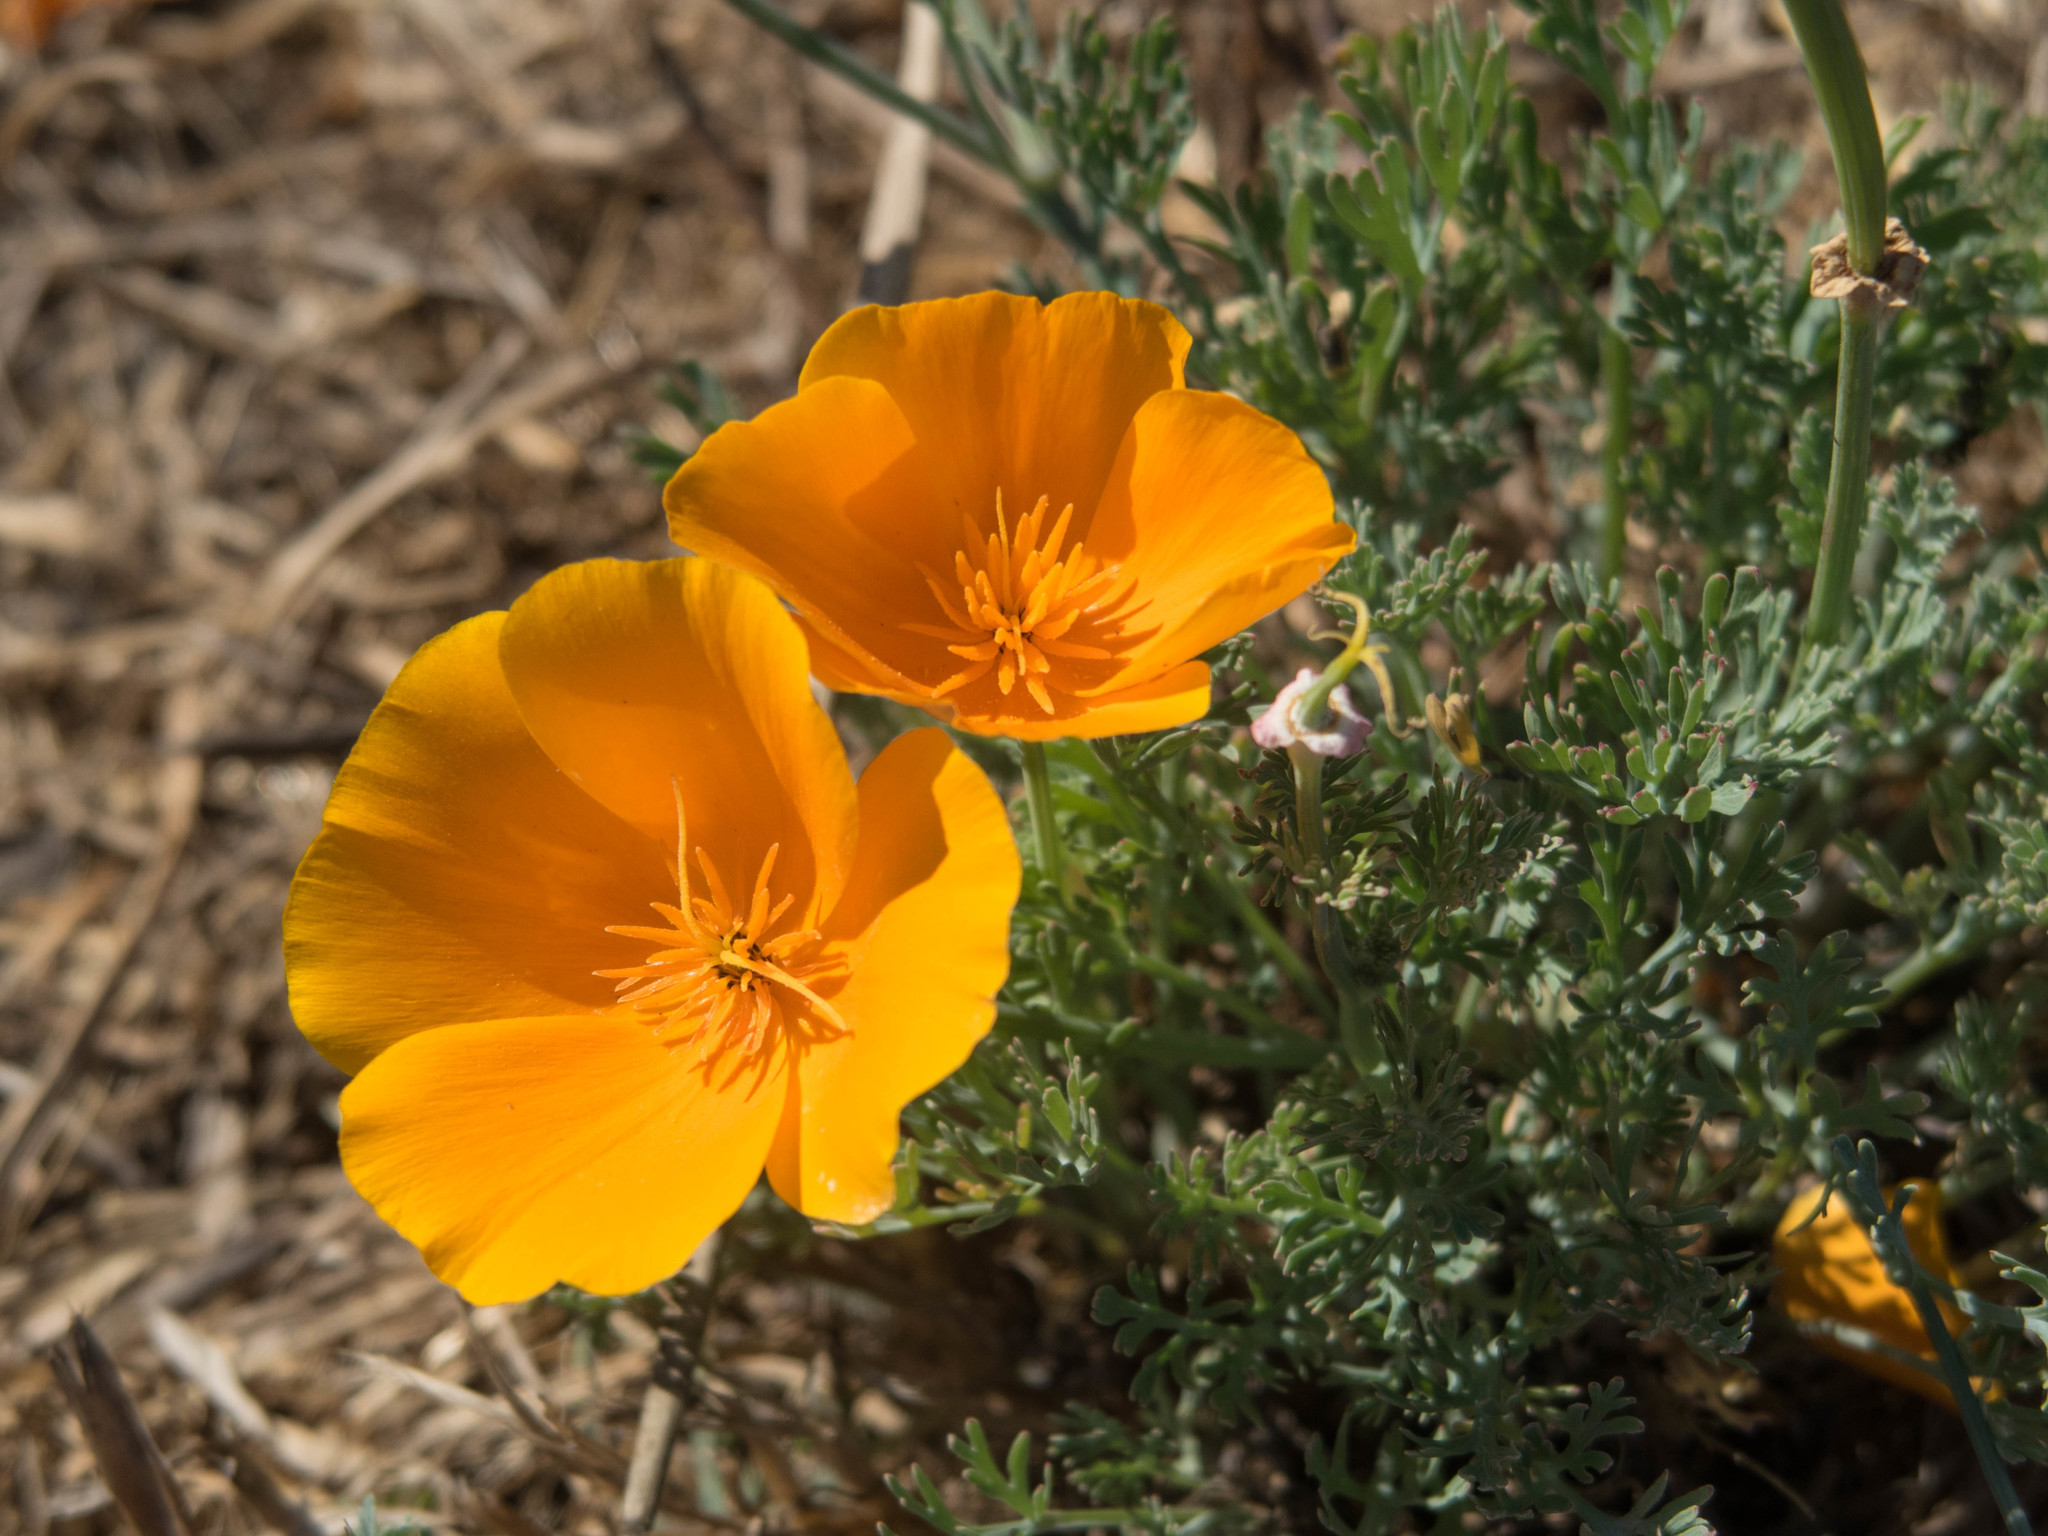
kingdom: Plantae
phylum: Tracheophyta
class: Magnoliopsida
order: Ranunculales
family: Papaveraceae
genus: Eschscholzia
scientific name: Eschscholzia californica
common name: California poppy
